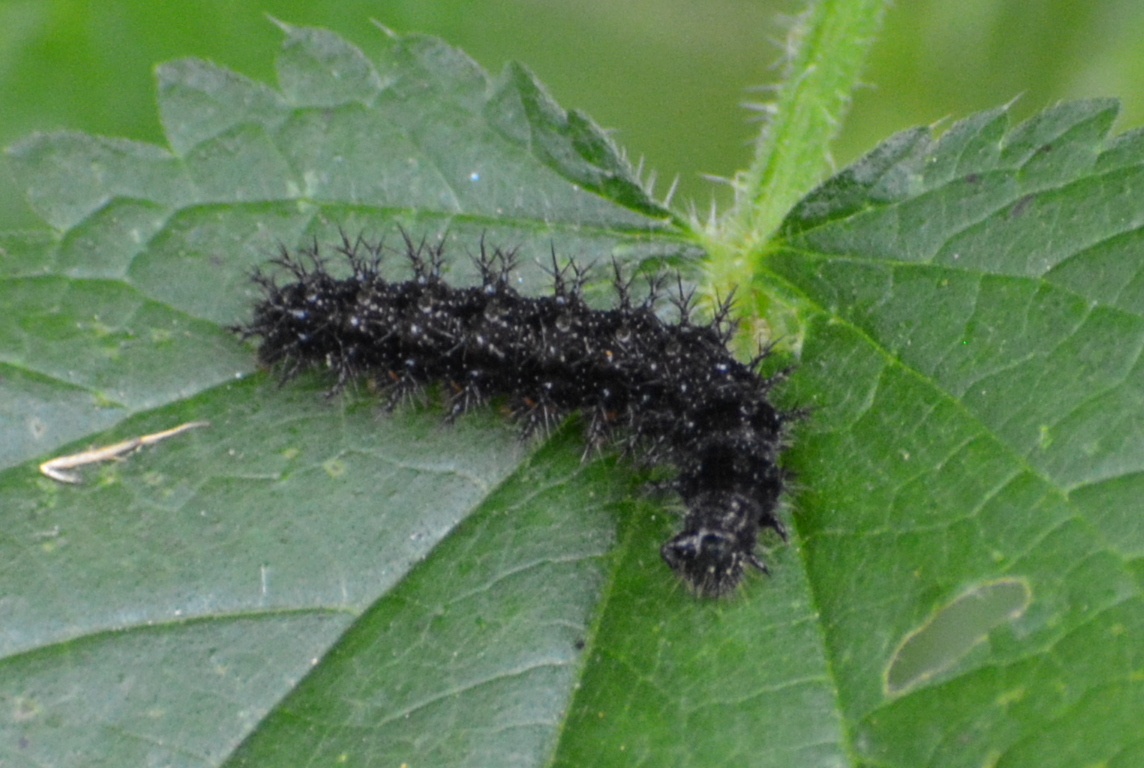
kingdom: Animalia
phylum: Arthropoda
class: Insecta
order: Lepidoptera
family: Nymphalidae
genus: Araschnia
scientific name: Araschnia levana
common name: Map butterfly
